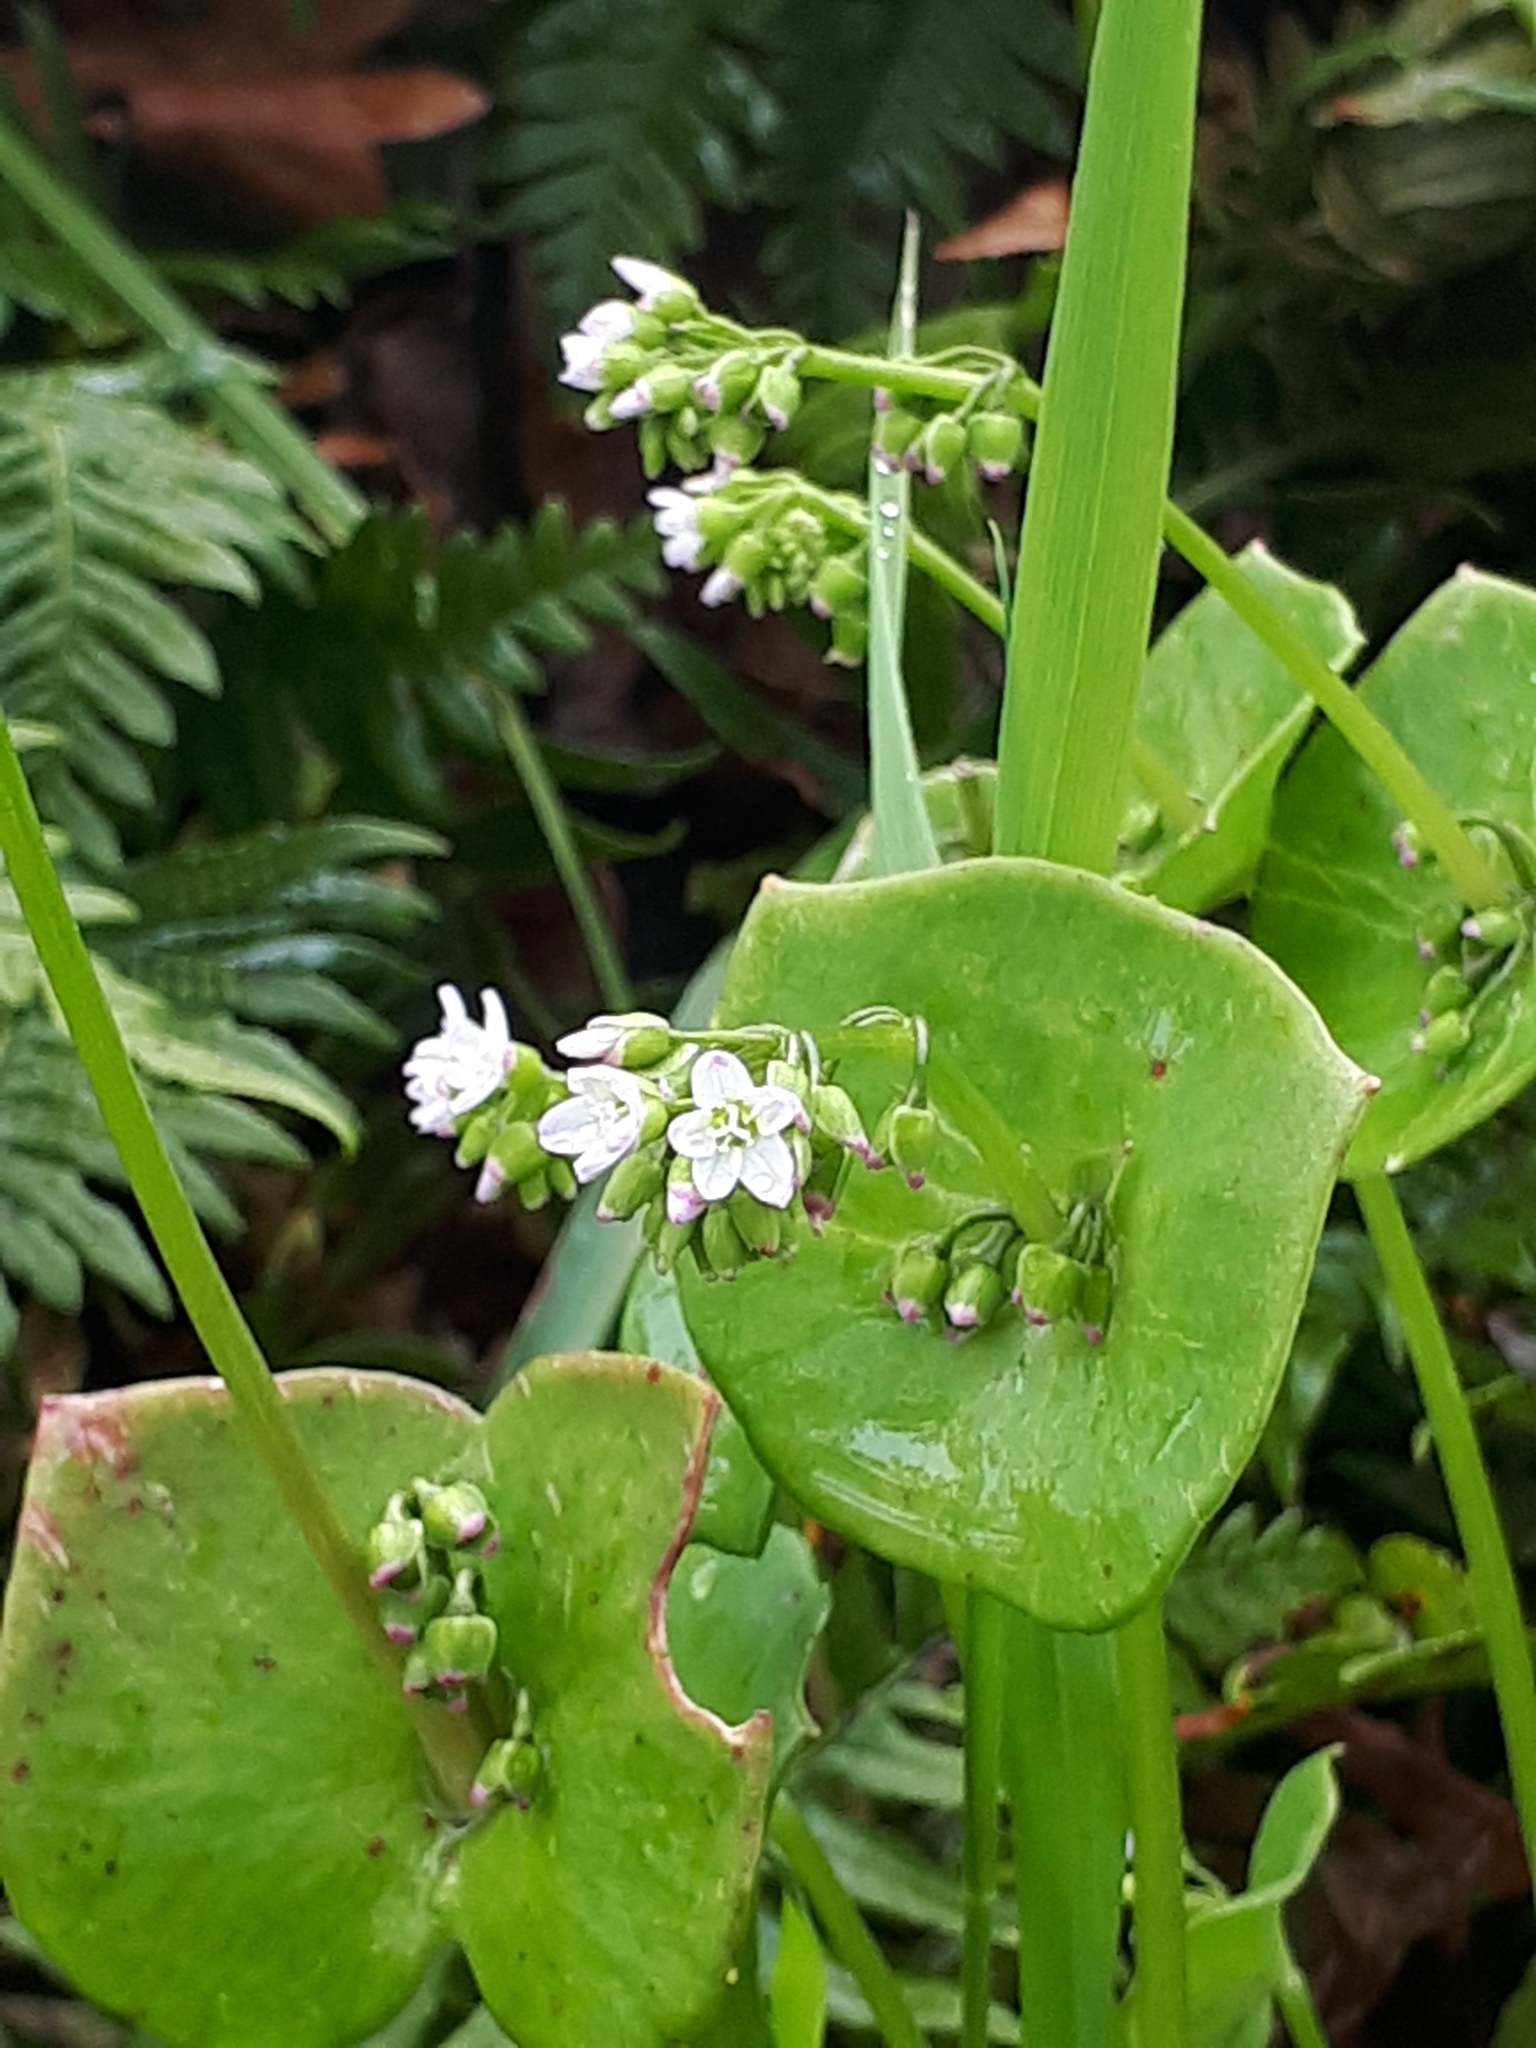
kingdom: Plantae
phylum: Tracheophyta
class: Magnoliopsida
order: Caryophyllales
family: Montiaceae
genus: Claytonia
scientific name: Claytonia perfoliata
